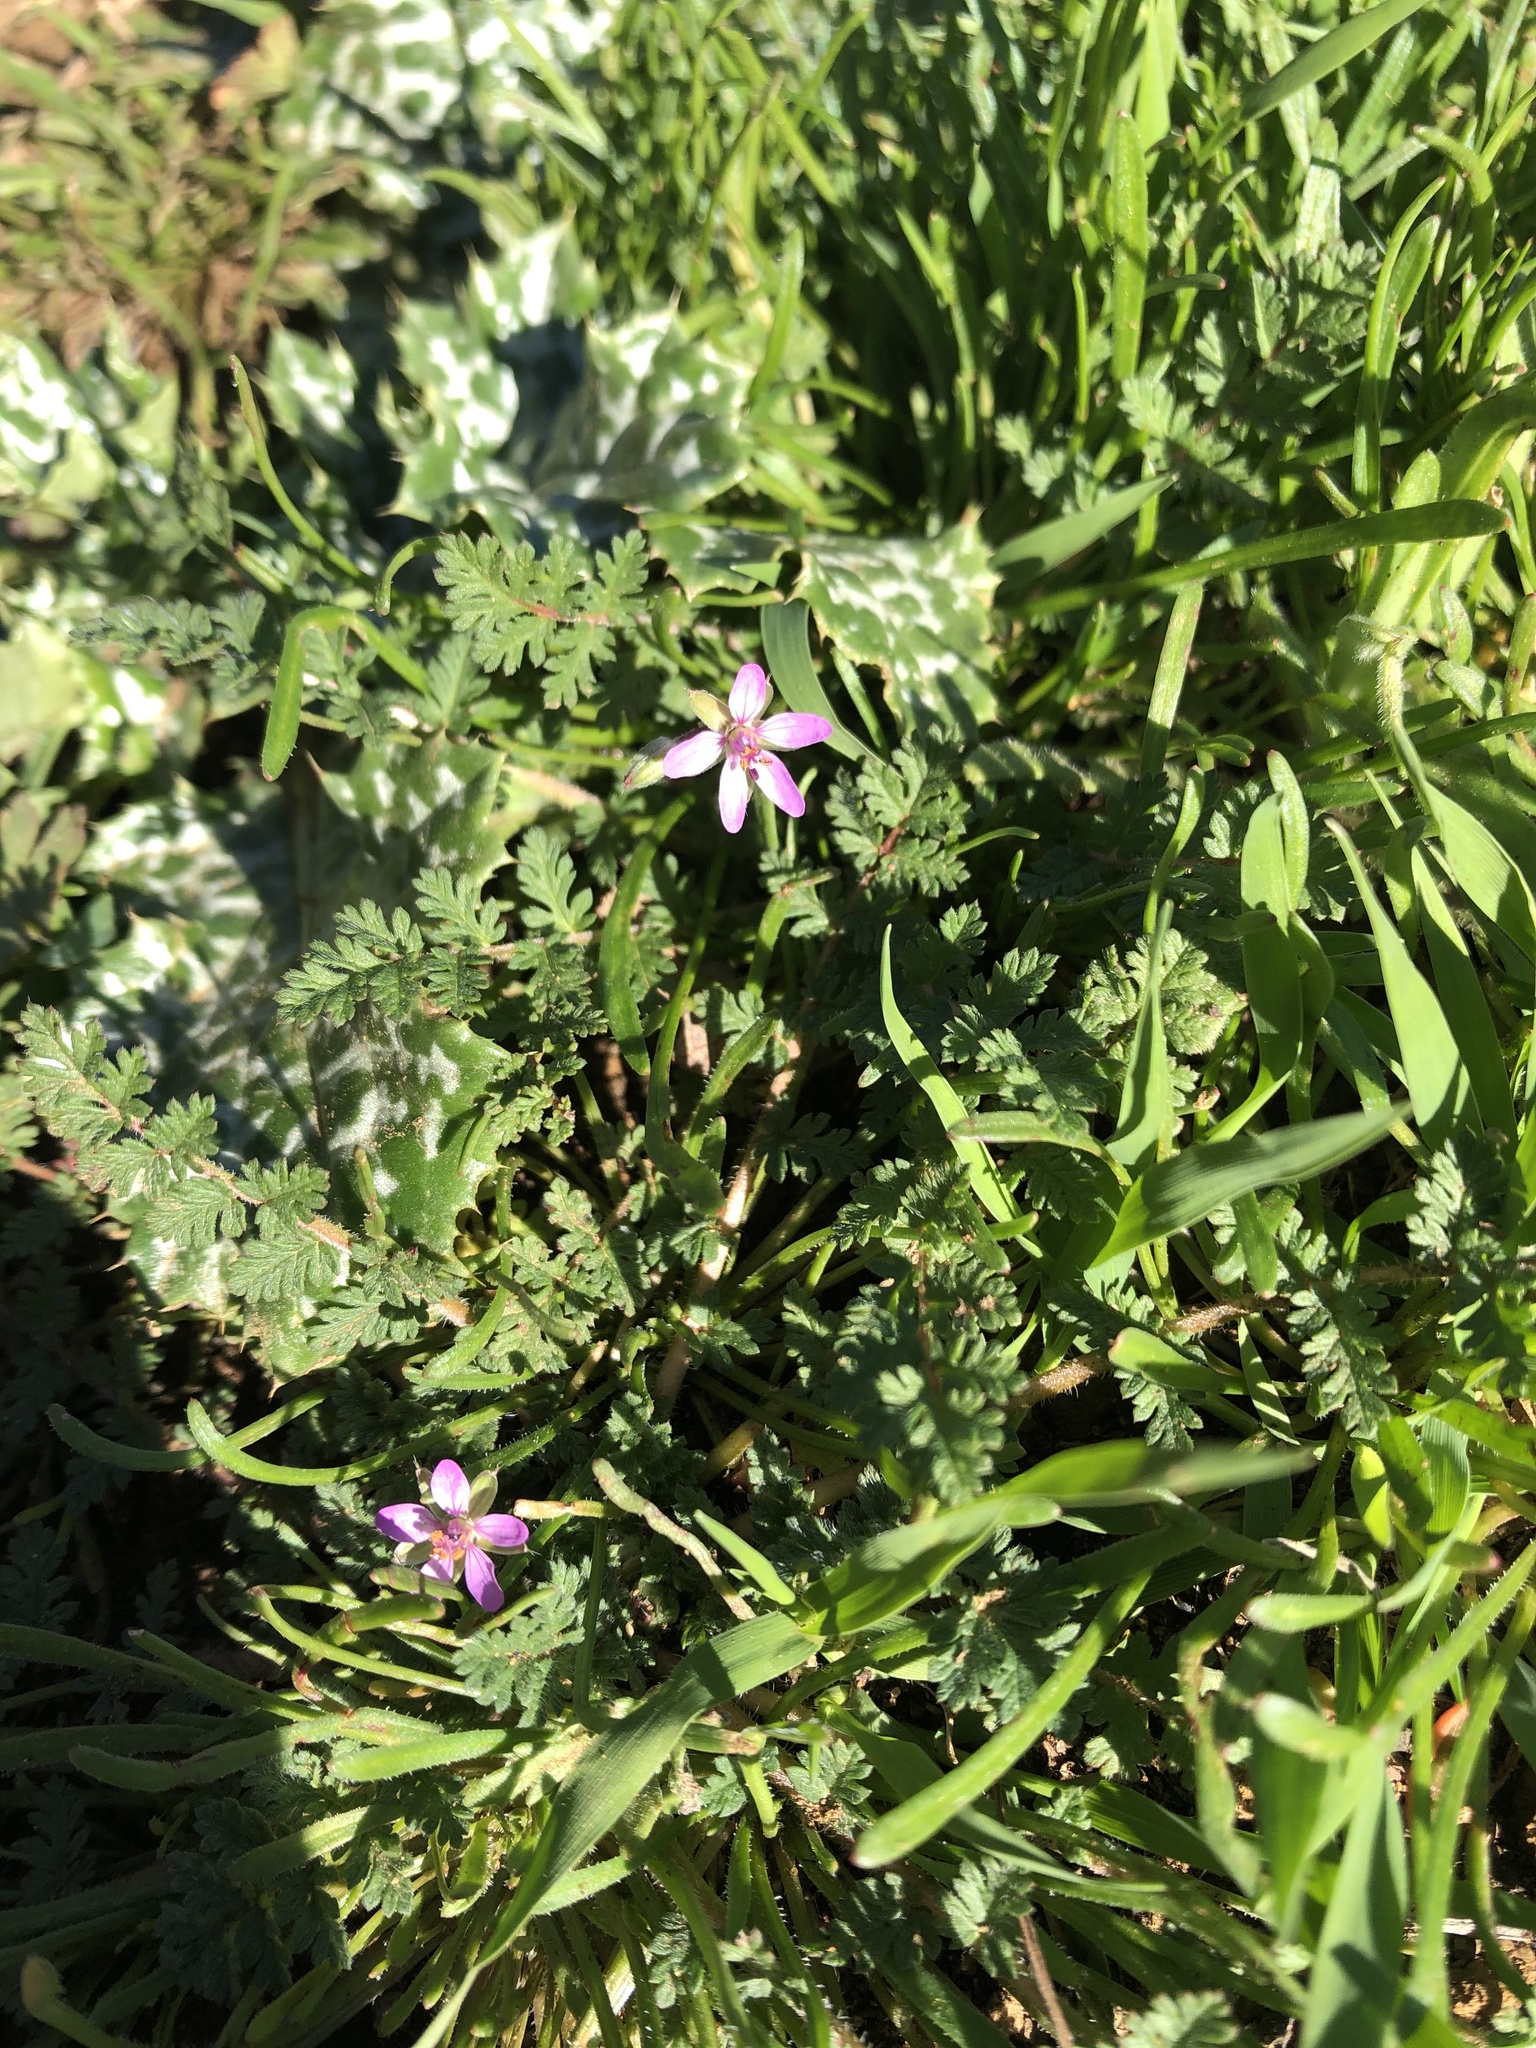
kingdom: Plantae
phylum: Tracheophyta
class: Magnoliopsida
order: Geraniales
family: Geraniaceae
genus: Erodium
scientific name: Erodium cicutarium
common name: Common stork's-bill
